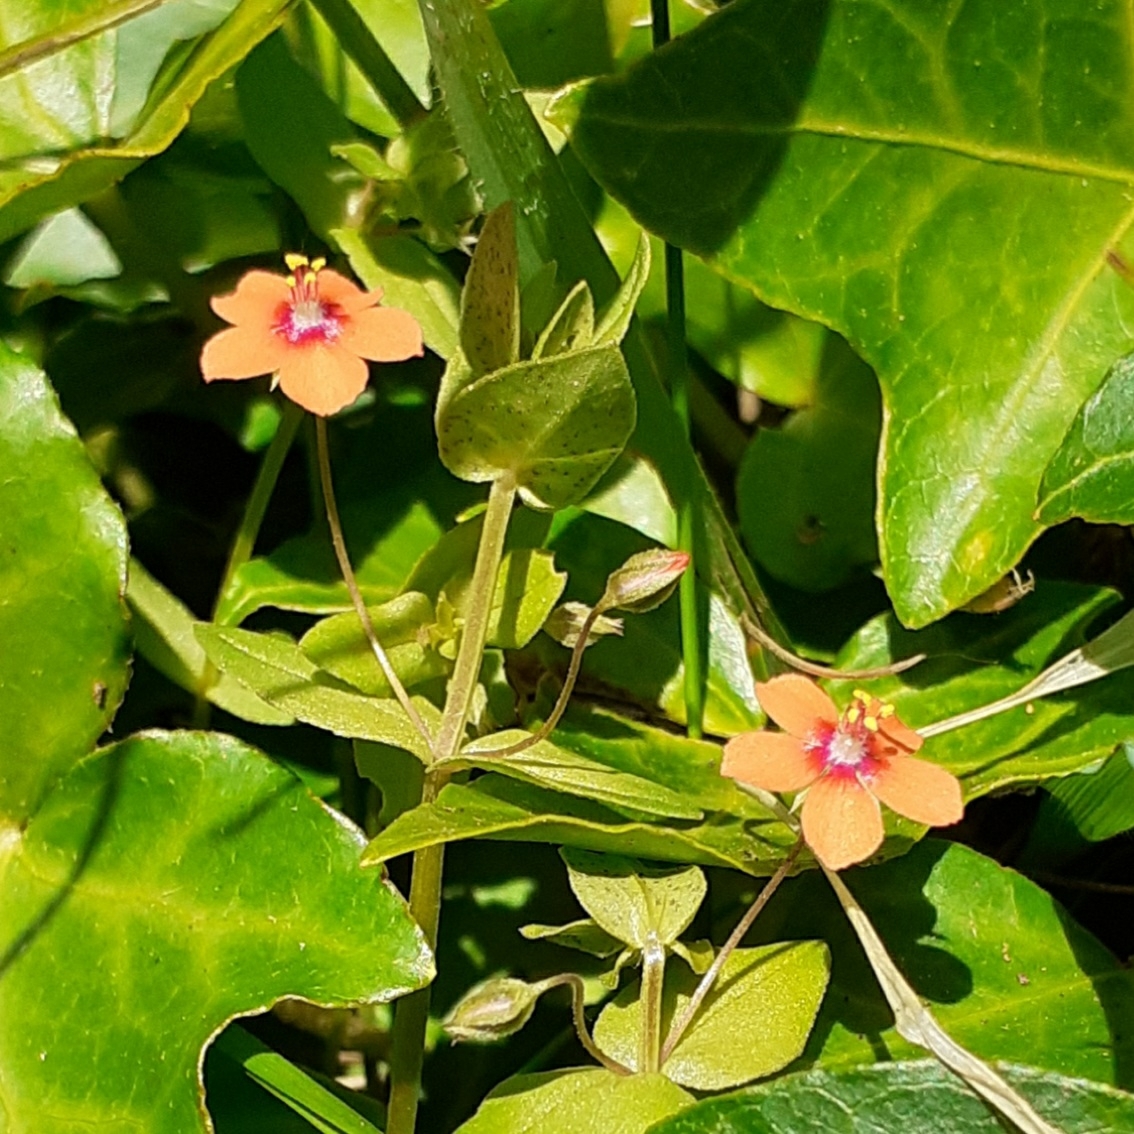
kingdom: Plantae
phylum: Tracheophyta
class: Magnoliopsida
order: Ericales
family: Primulaceae
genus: Lysimachia
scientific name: Lysimachia arvensis
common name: Scarlet pimpernel
